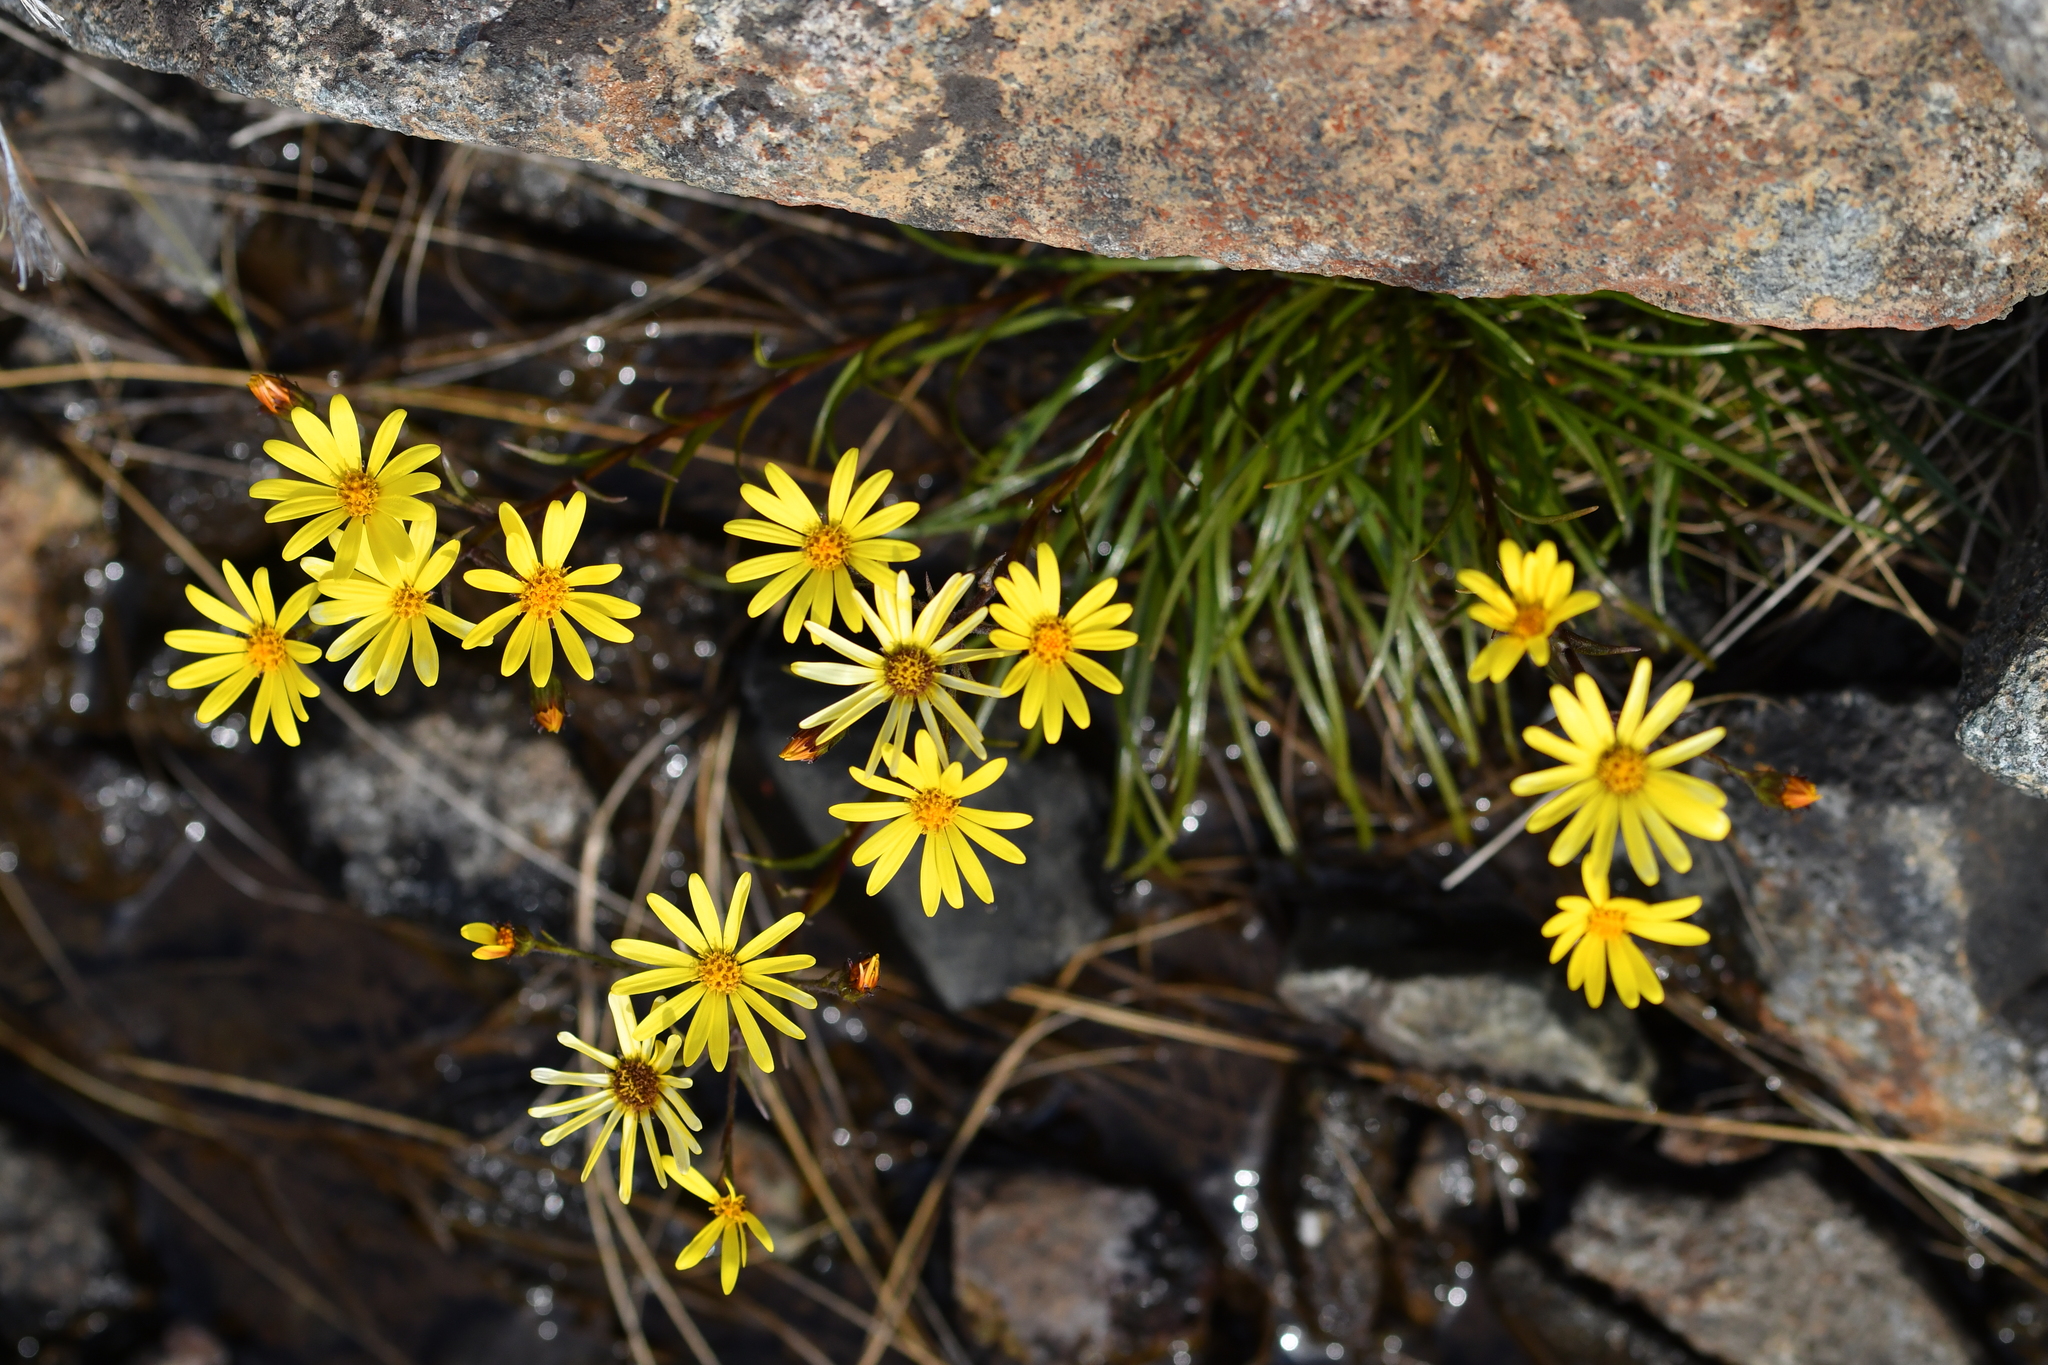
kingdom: Plantae
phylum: Tracheophyta
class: Magnoliopsida
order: Asterales
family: Asteraceae
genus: Dolichoglottis
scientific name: Dolichoglottis lyallii
